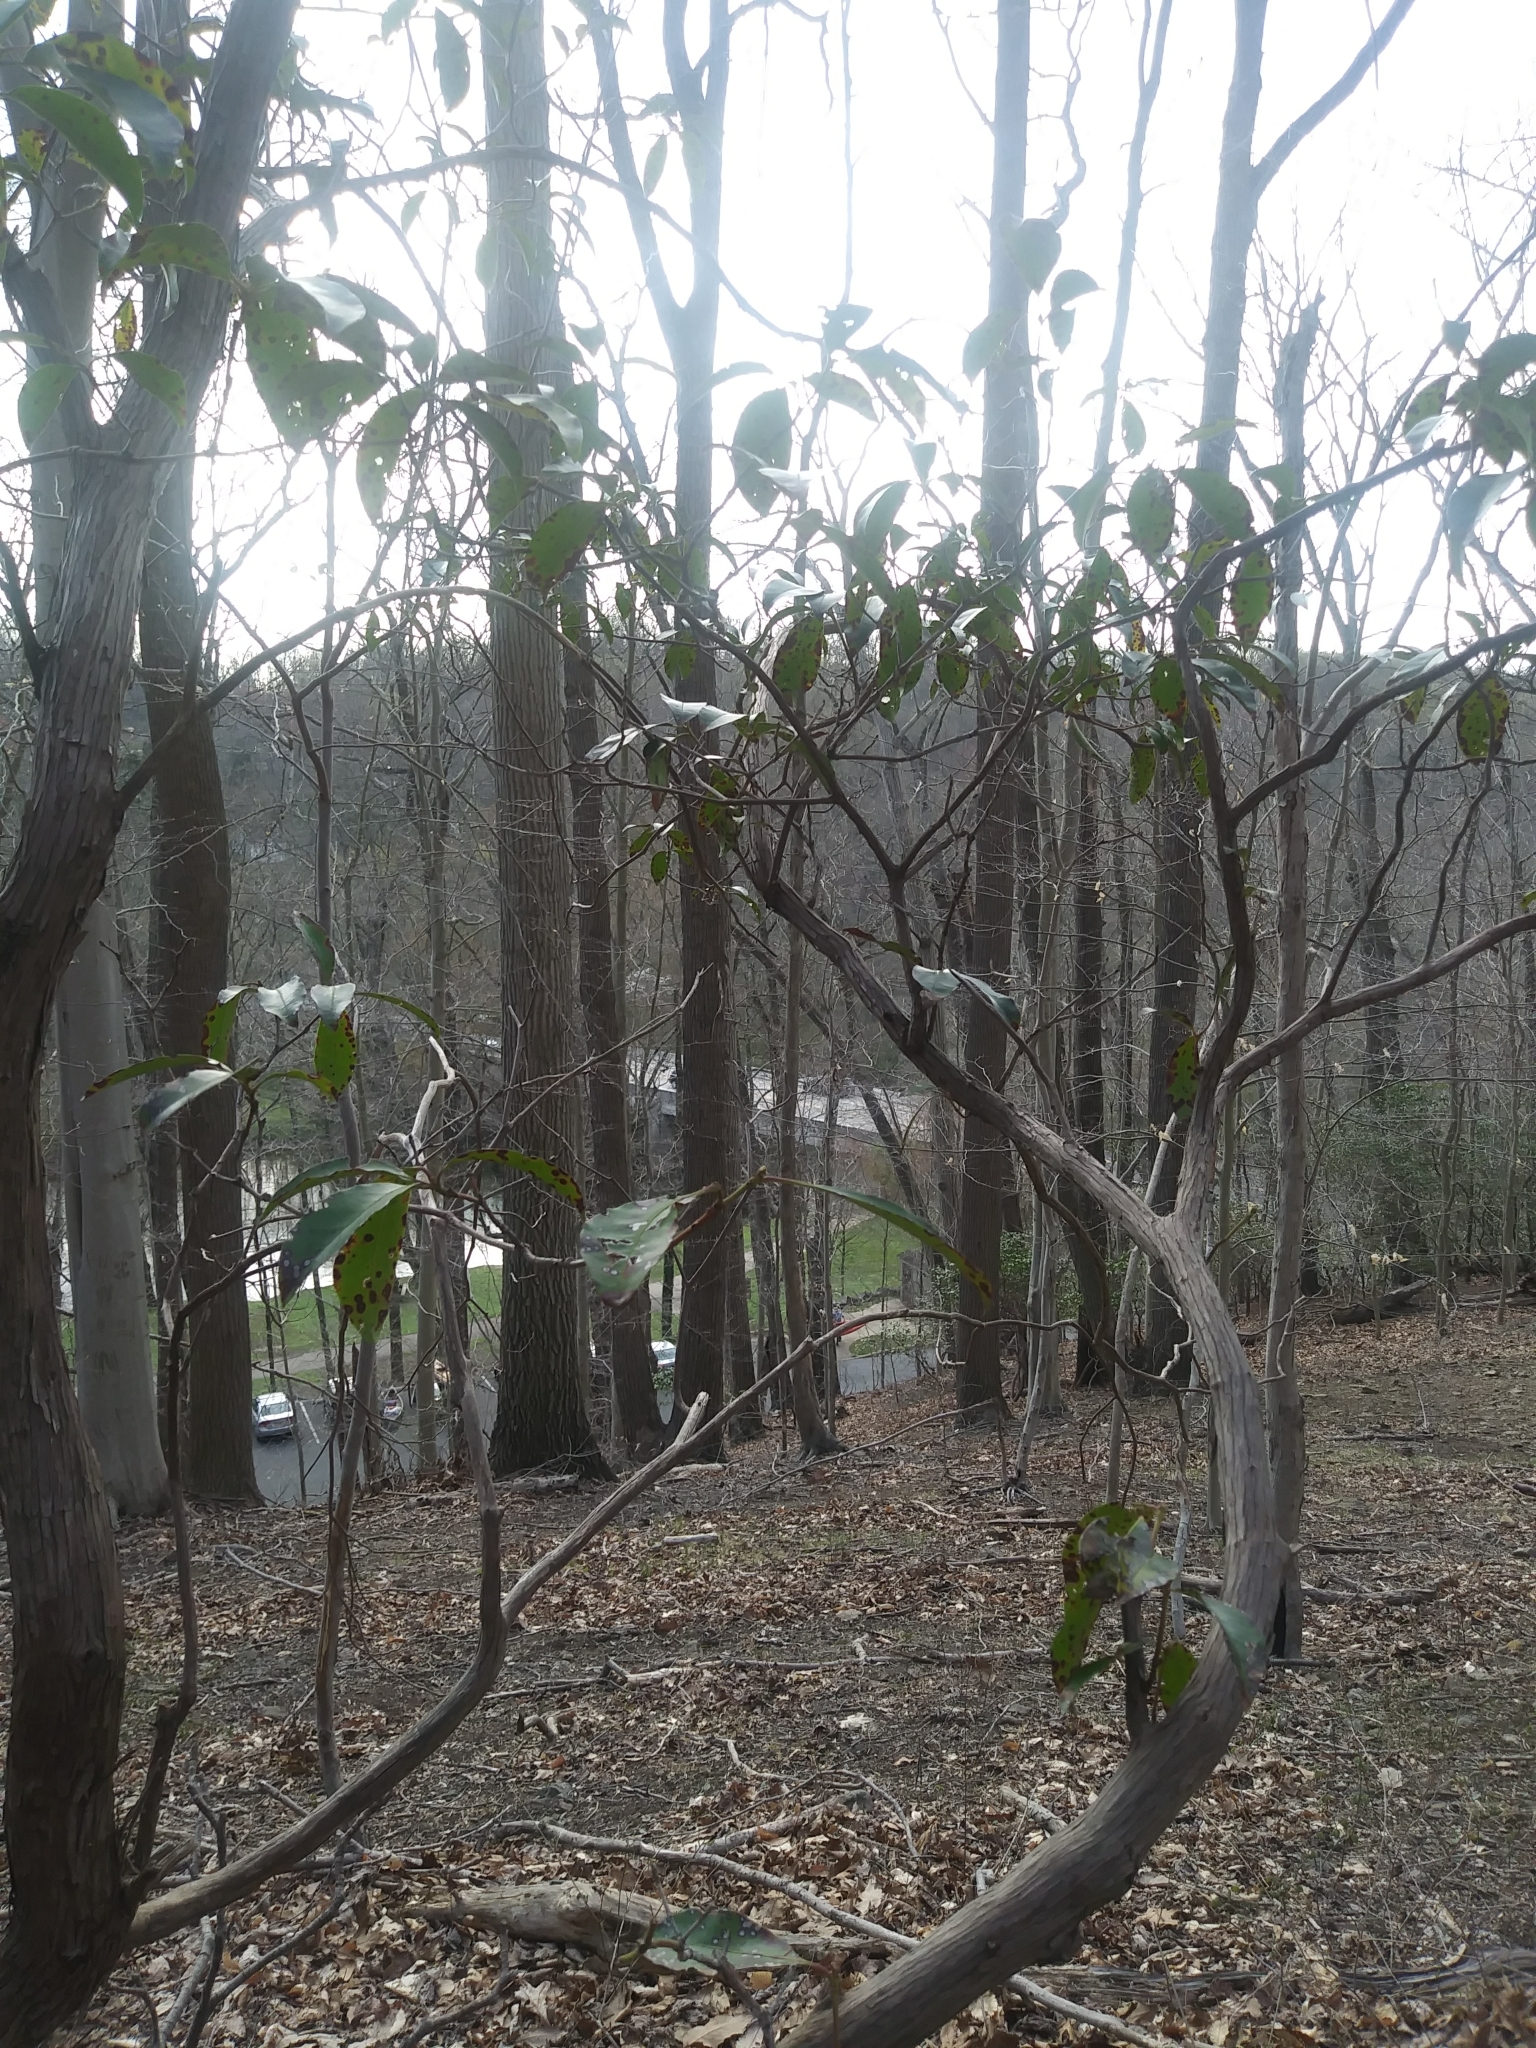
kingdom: Plantae
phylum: Tracheophyta
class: Magnoliopsida
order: Ericales
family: Ericaceae
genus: Kalmia
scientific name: Kalmia latifolia
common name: Mountain-laurel
